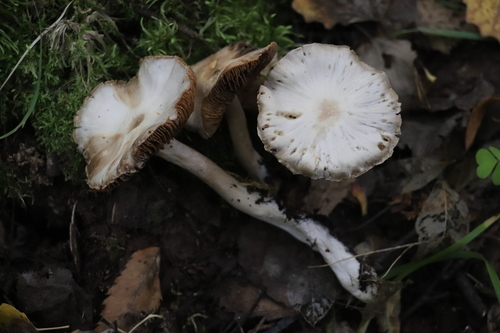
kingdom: Fungi
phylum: Basidiomycota
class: Agaricomycetes
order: Agaricales
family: Cortinariaceae
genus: Cortinarius
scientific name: Cortinarius alboviolaceus
